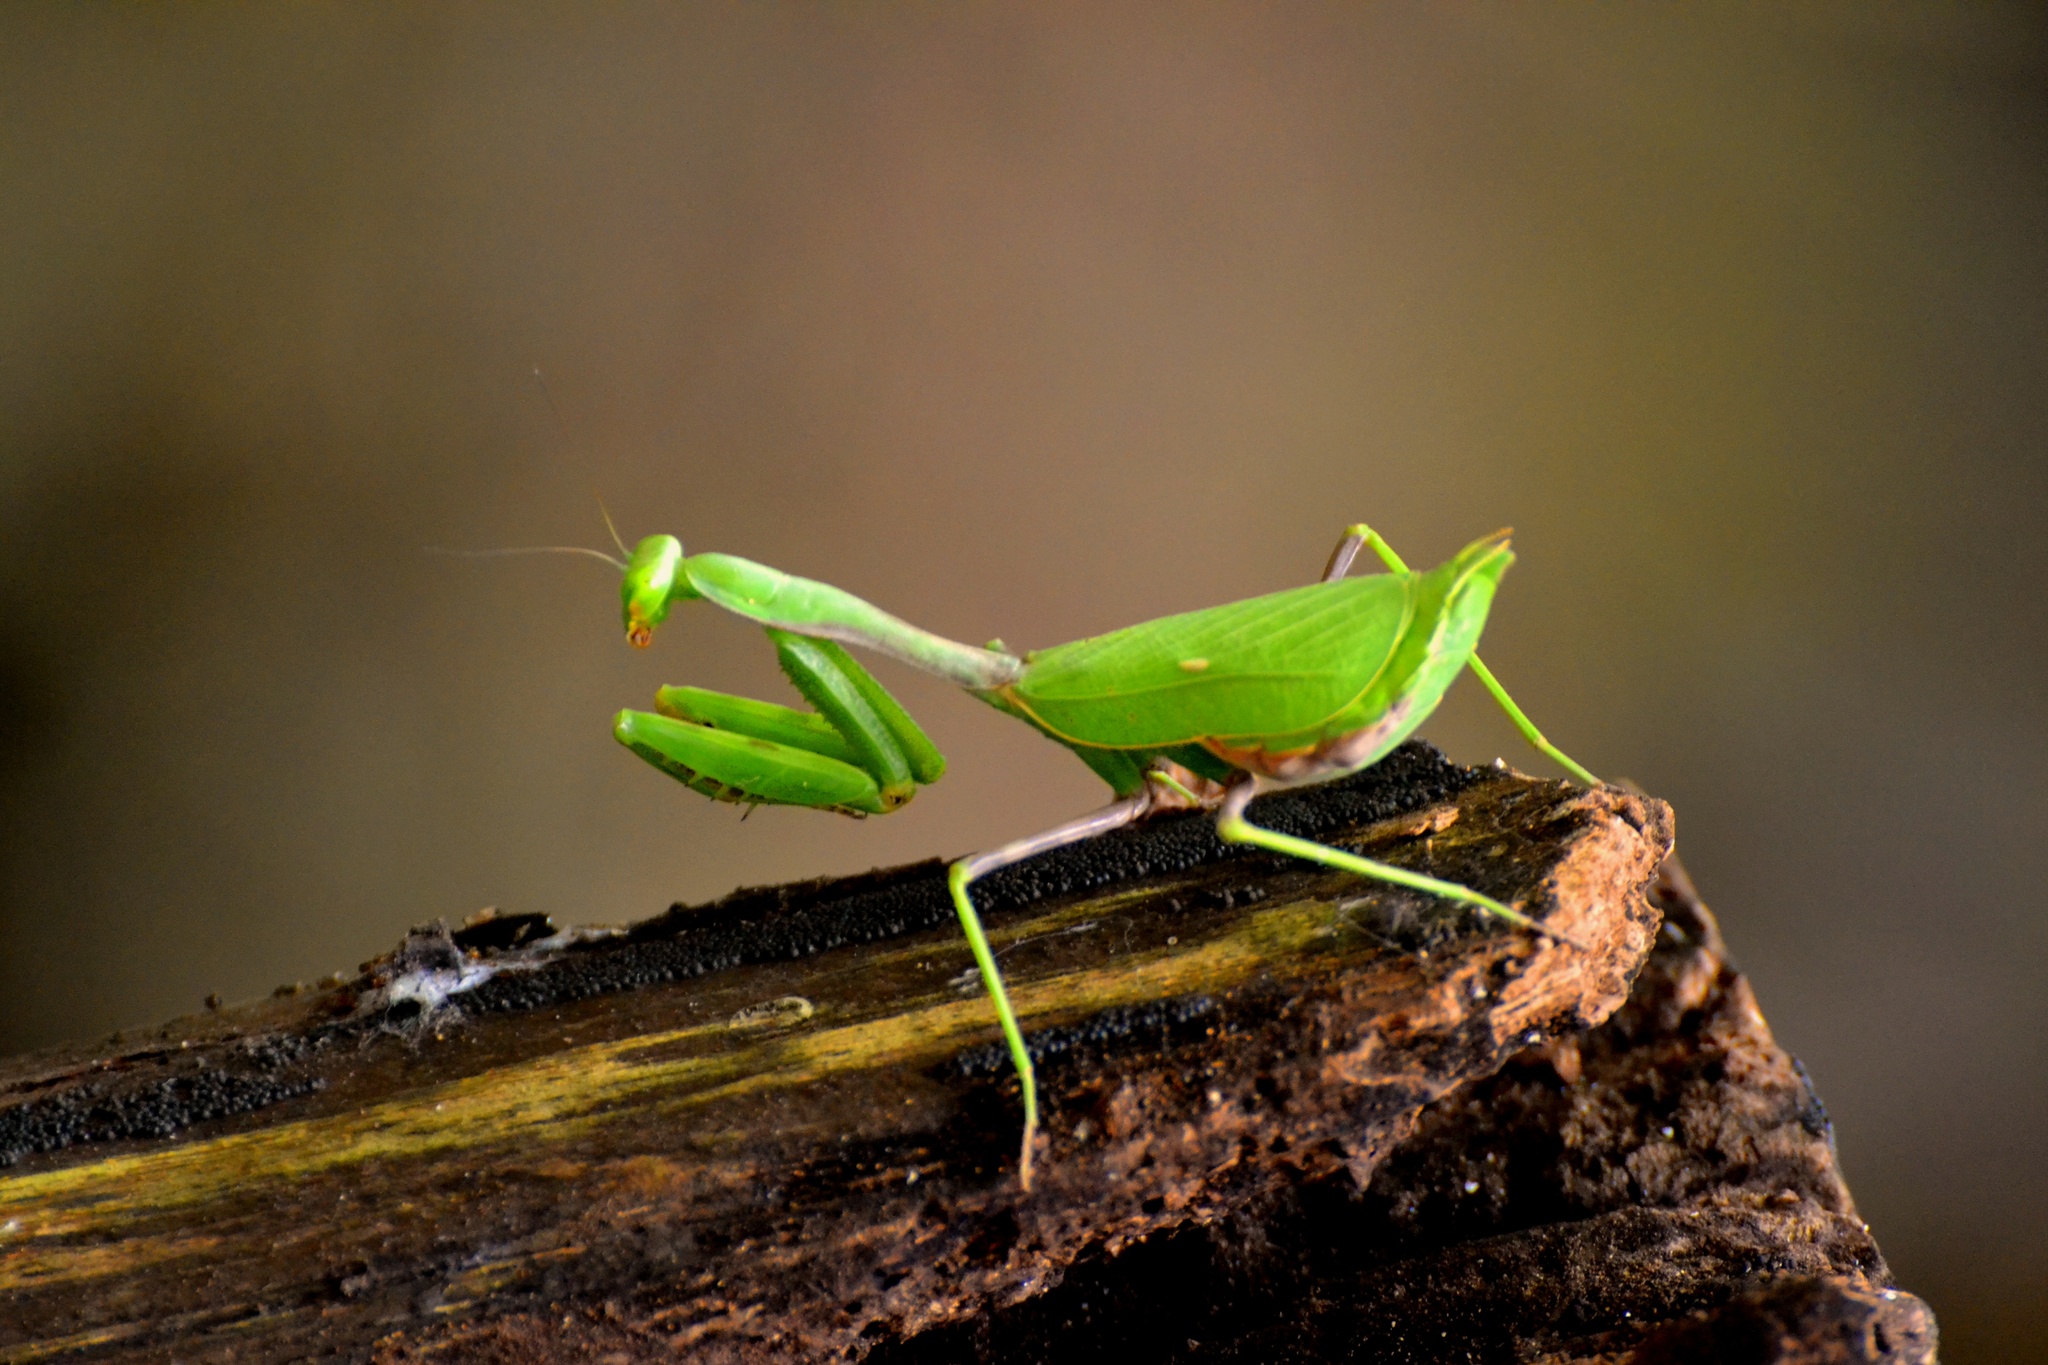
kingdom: Animalia
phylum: Arthropoda
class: Insecta
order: Mantodea
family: Mantidae
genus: Stagmomantis
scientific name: Stagmomantis limbata
